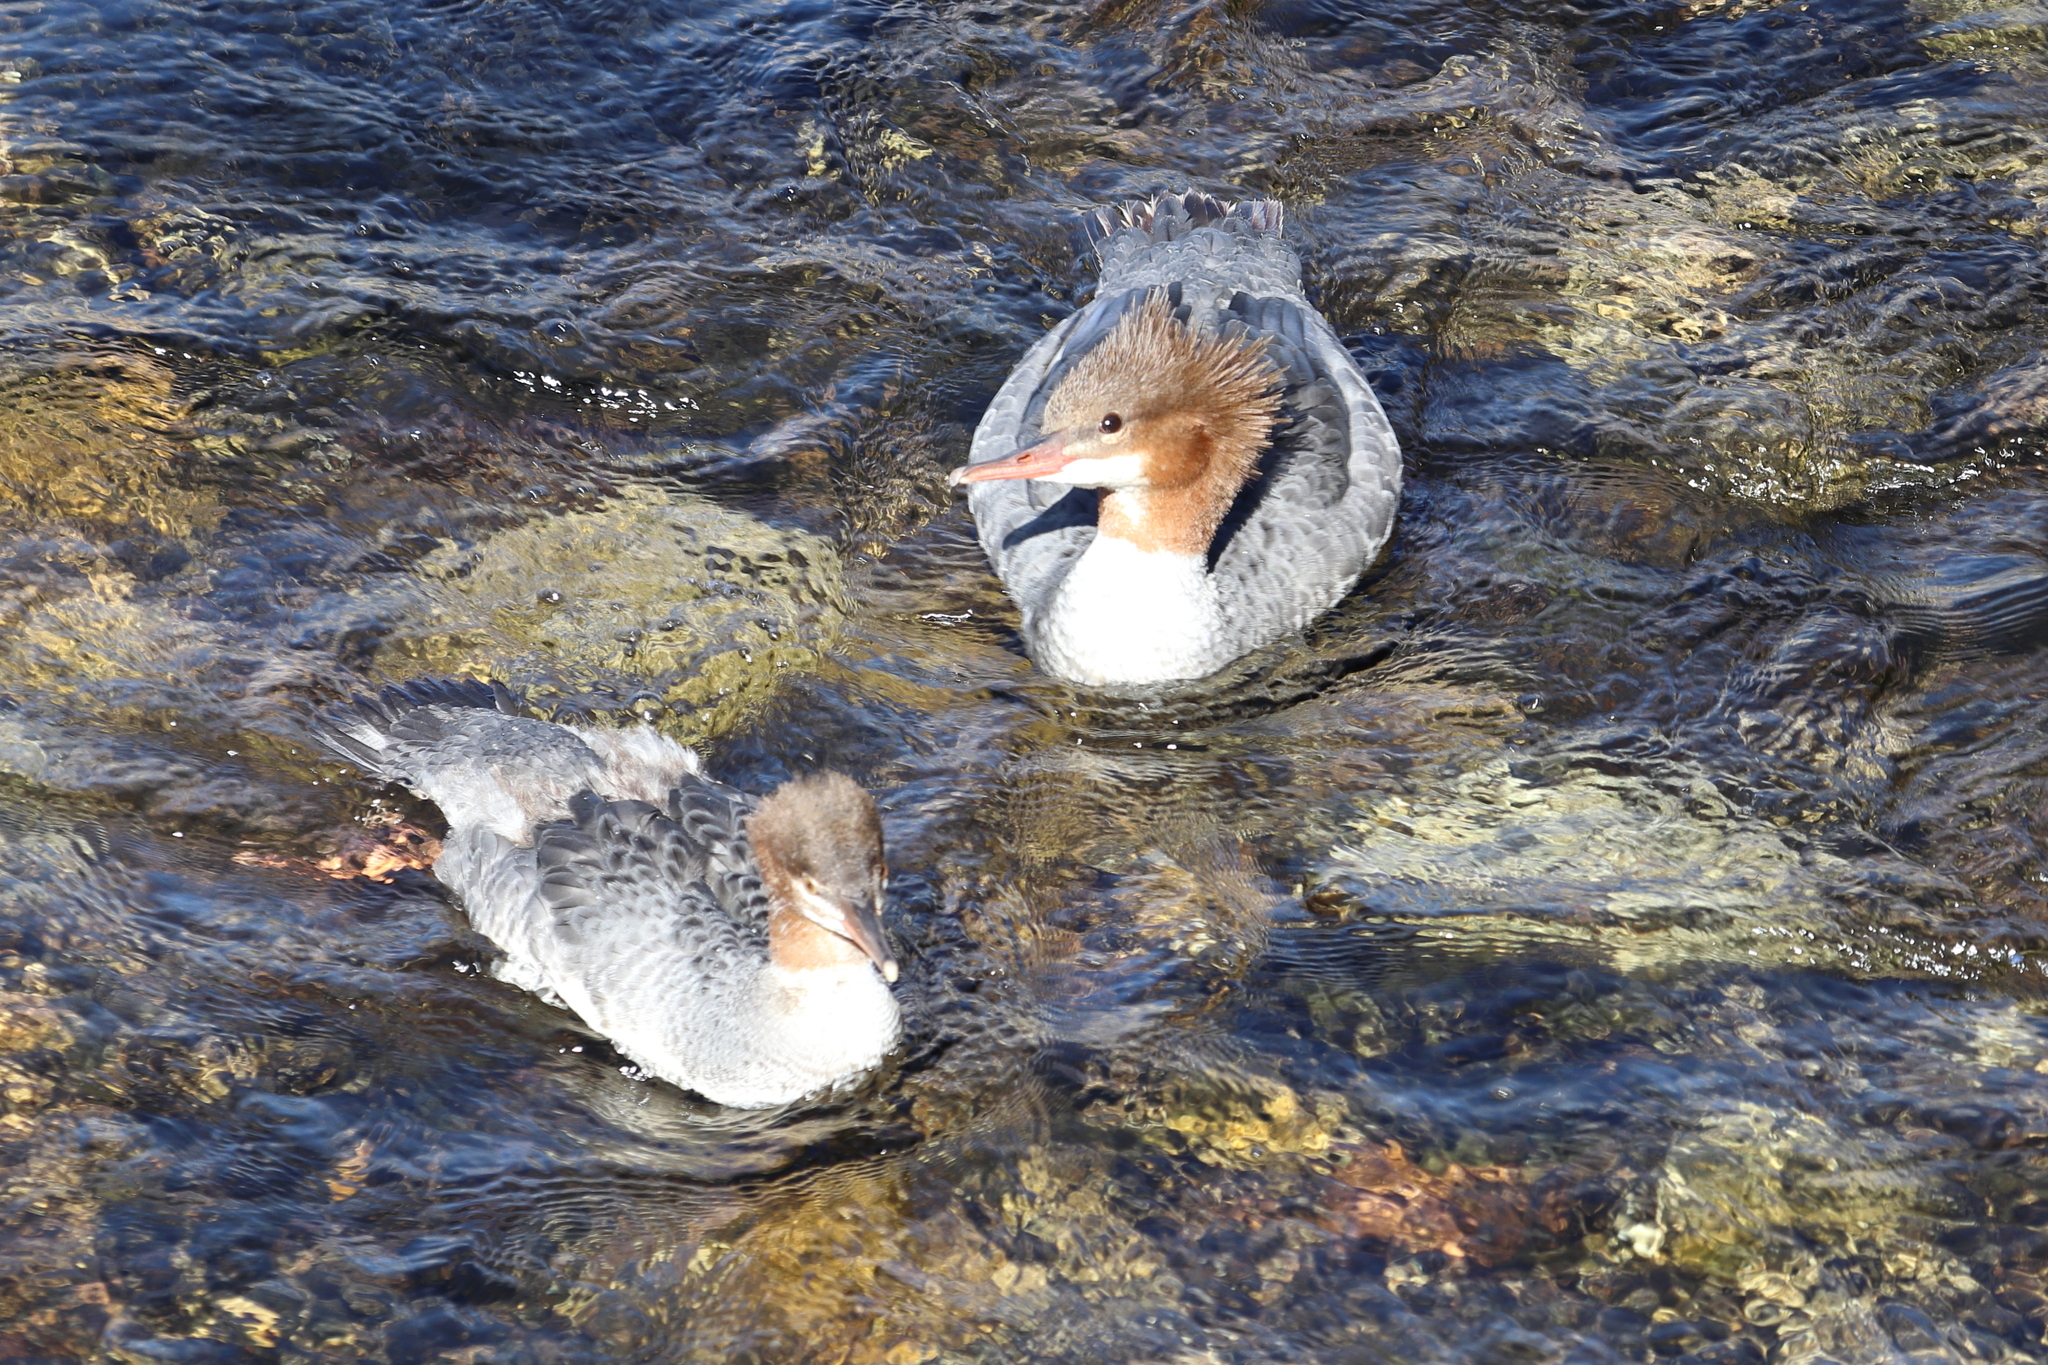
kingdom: Animalia
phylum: Chordata
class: Aves
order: Anseriformes
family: Anatidae
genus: Mergus
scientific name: Mergus merganser
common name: Common merganser
